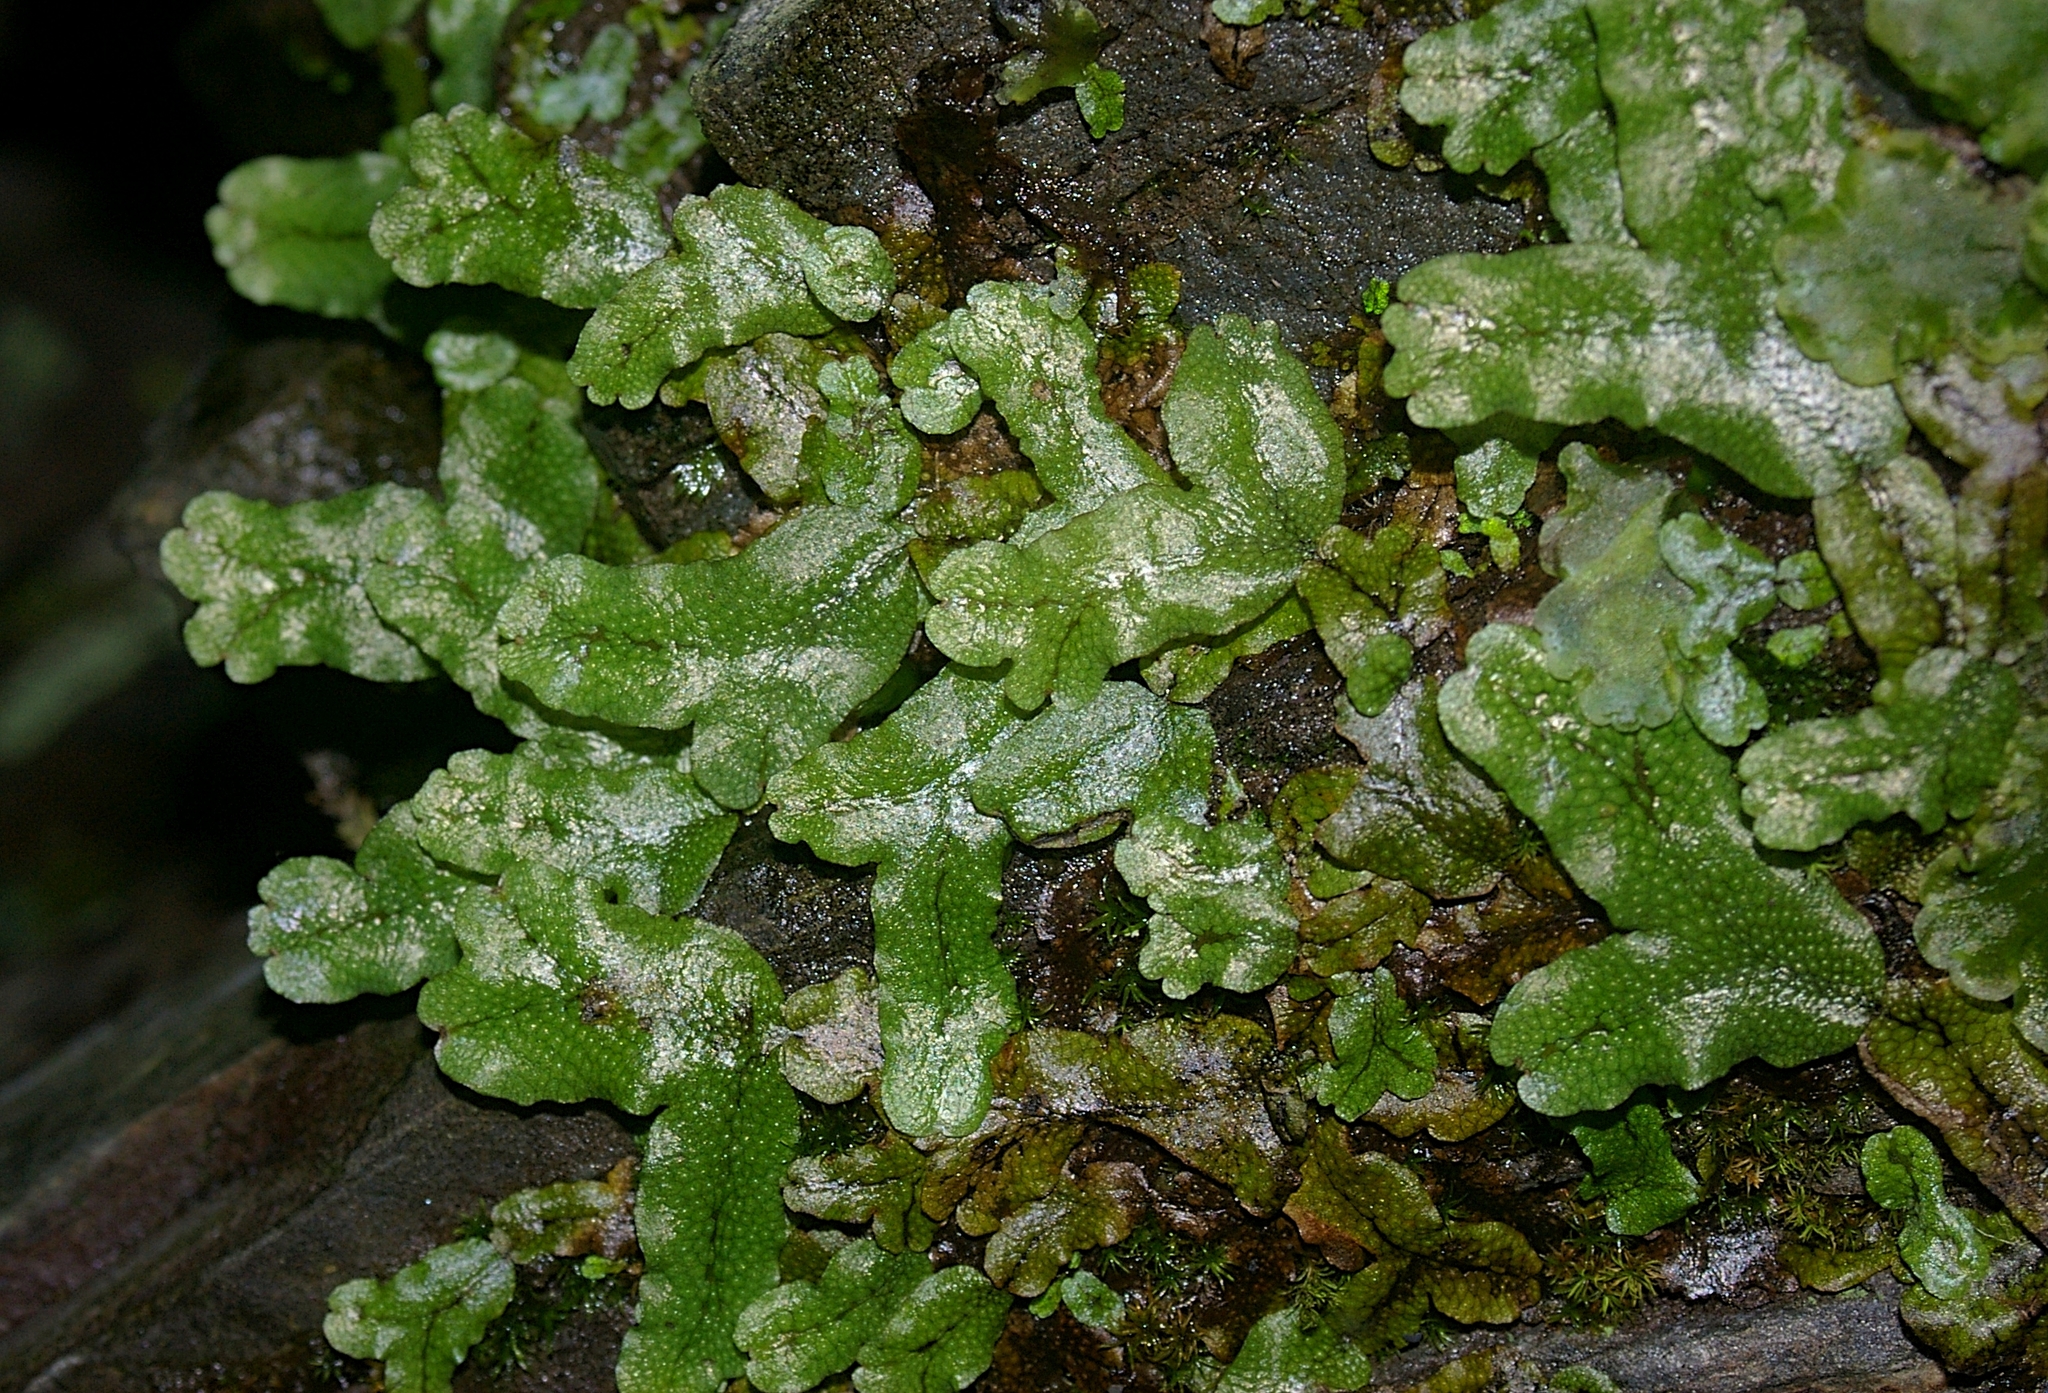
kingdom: Plantae
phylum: Marchantiophyta
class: Marchantiopsida
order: Marchantiales
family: Conocephalaceae
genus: Conocephalum
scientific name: Conocephalum conicum
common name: Great scented liverwort
